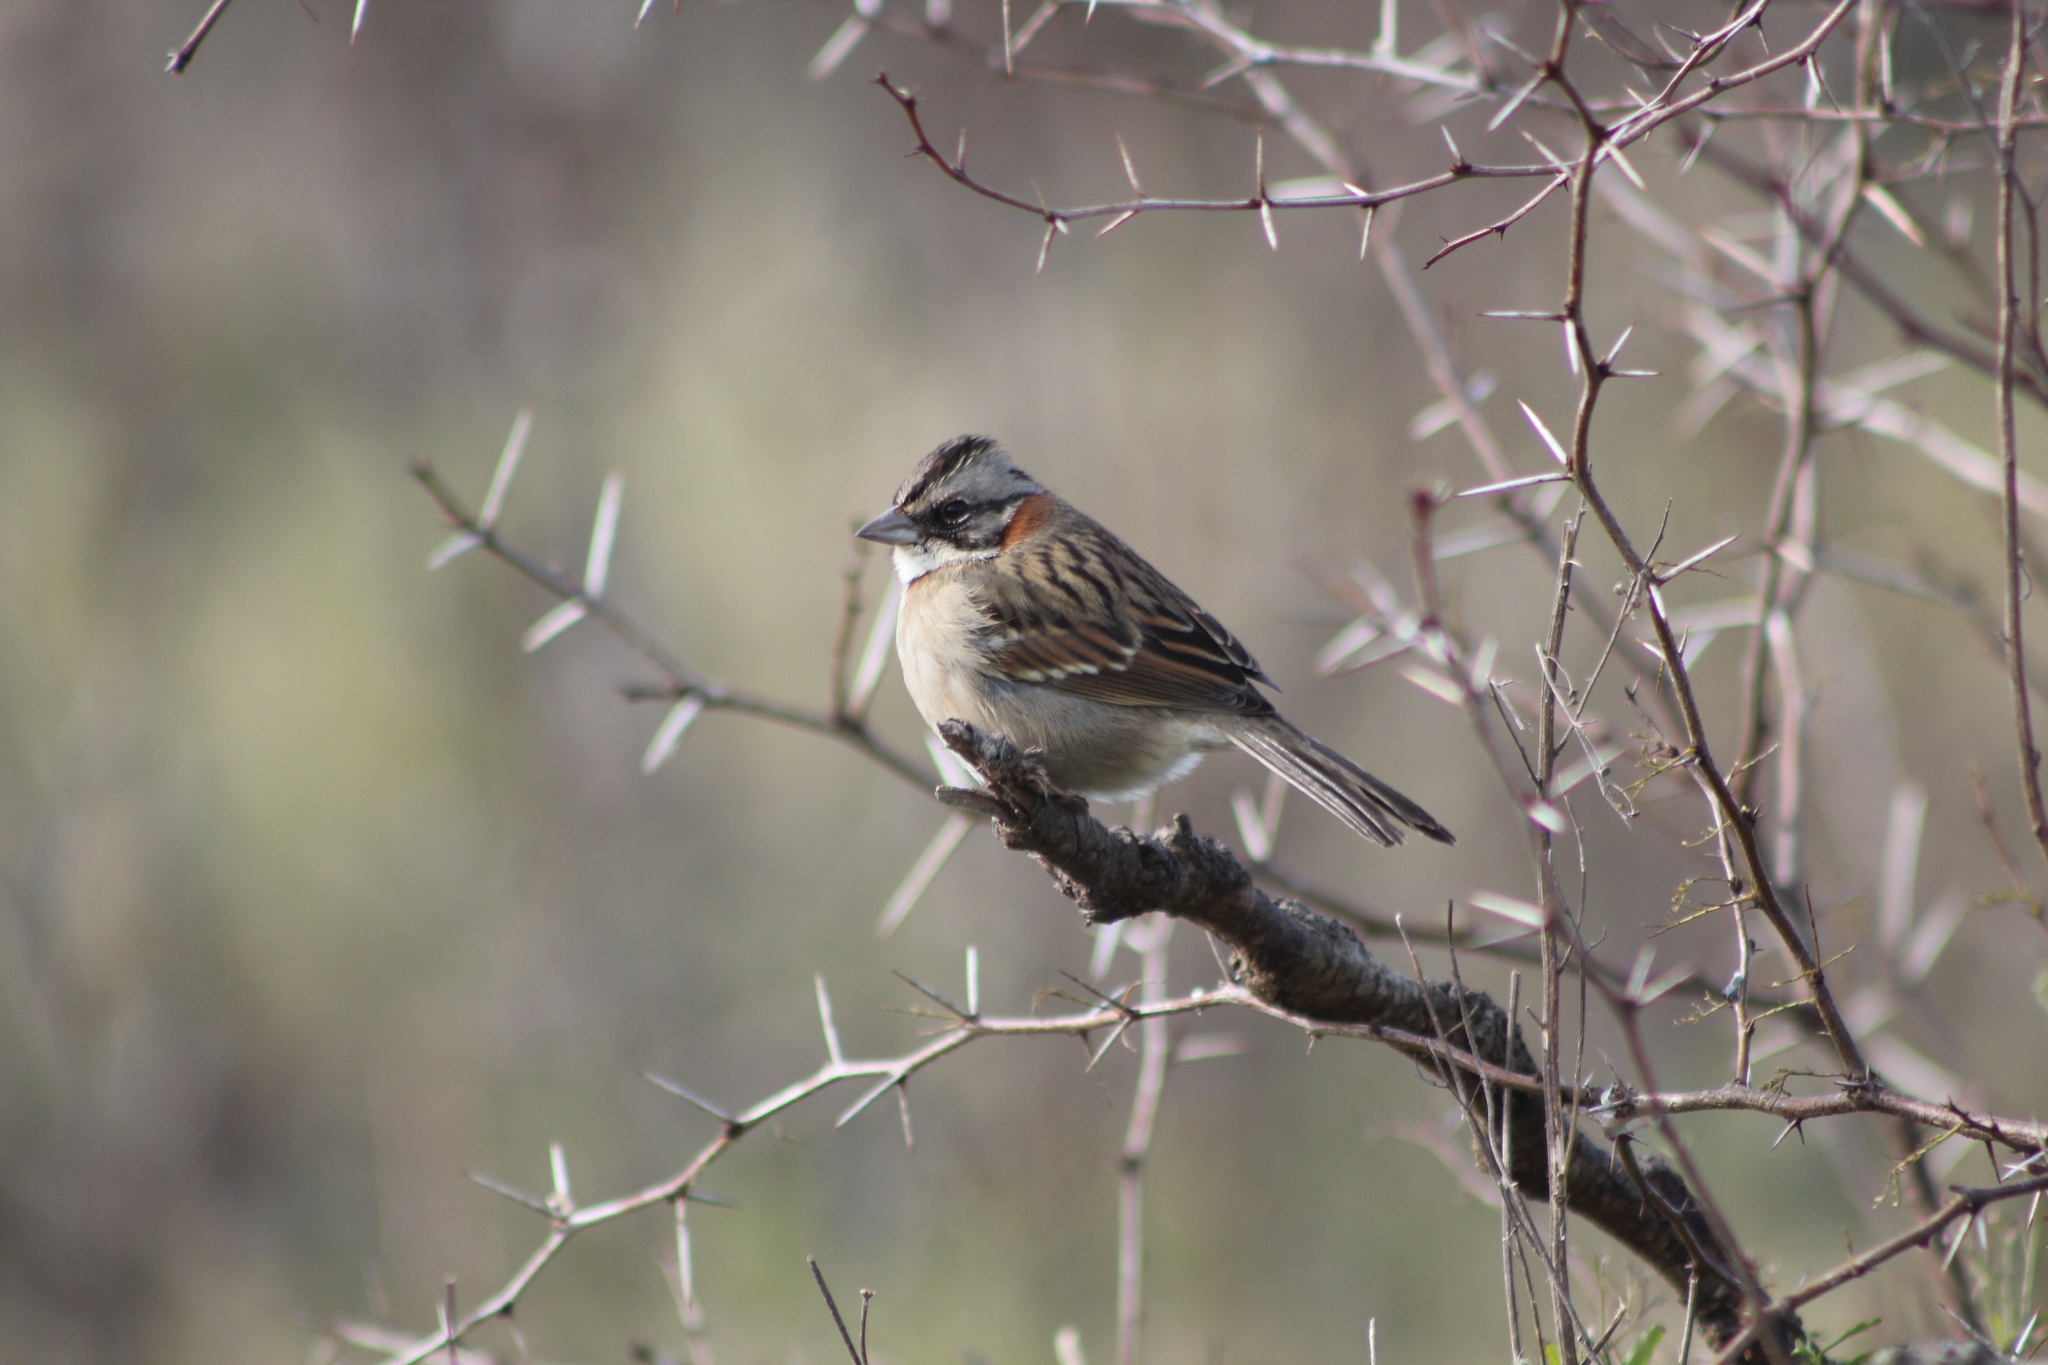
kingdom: Animalia
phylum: Chordata
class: Aves
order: Passeriformes
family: Passerellidae
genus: Zonotrichia
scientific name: Zonotrichia capensis
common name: Rufous-collared sparrow
